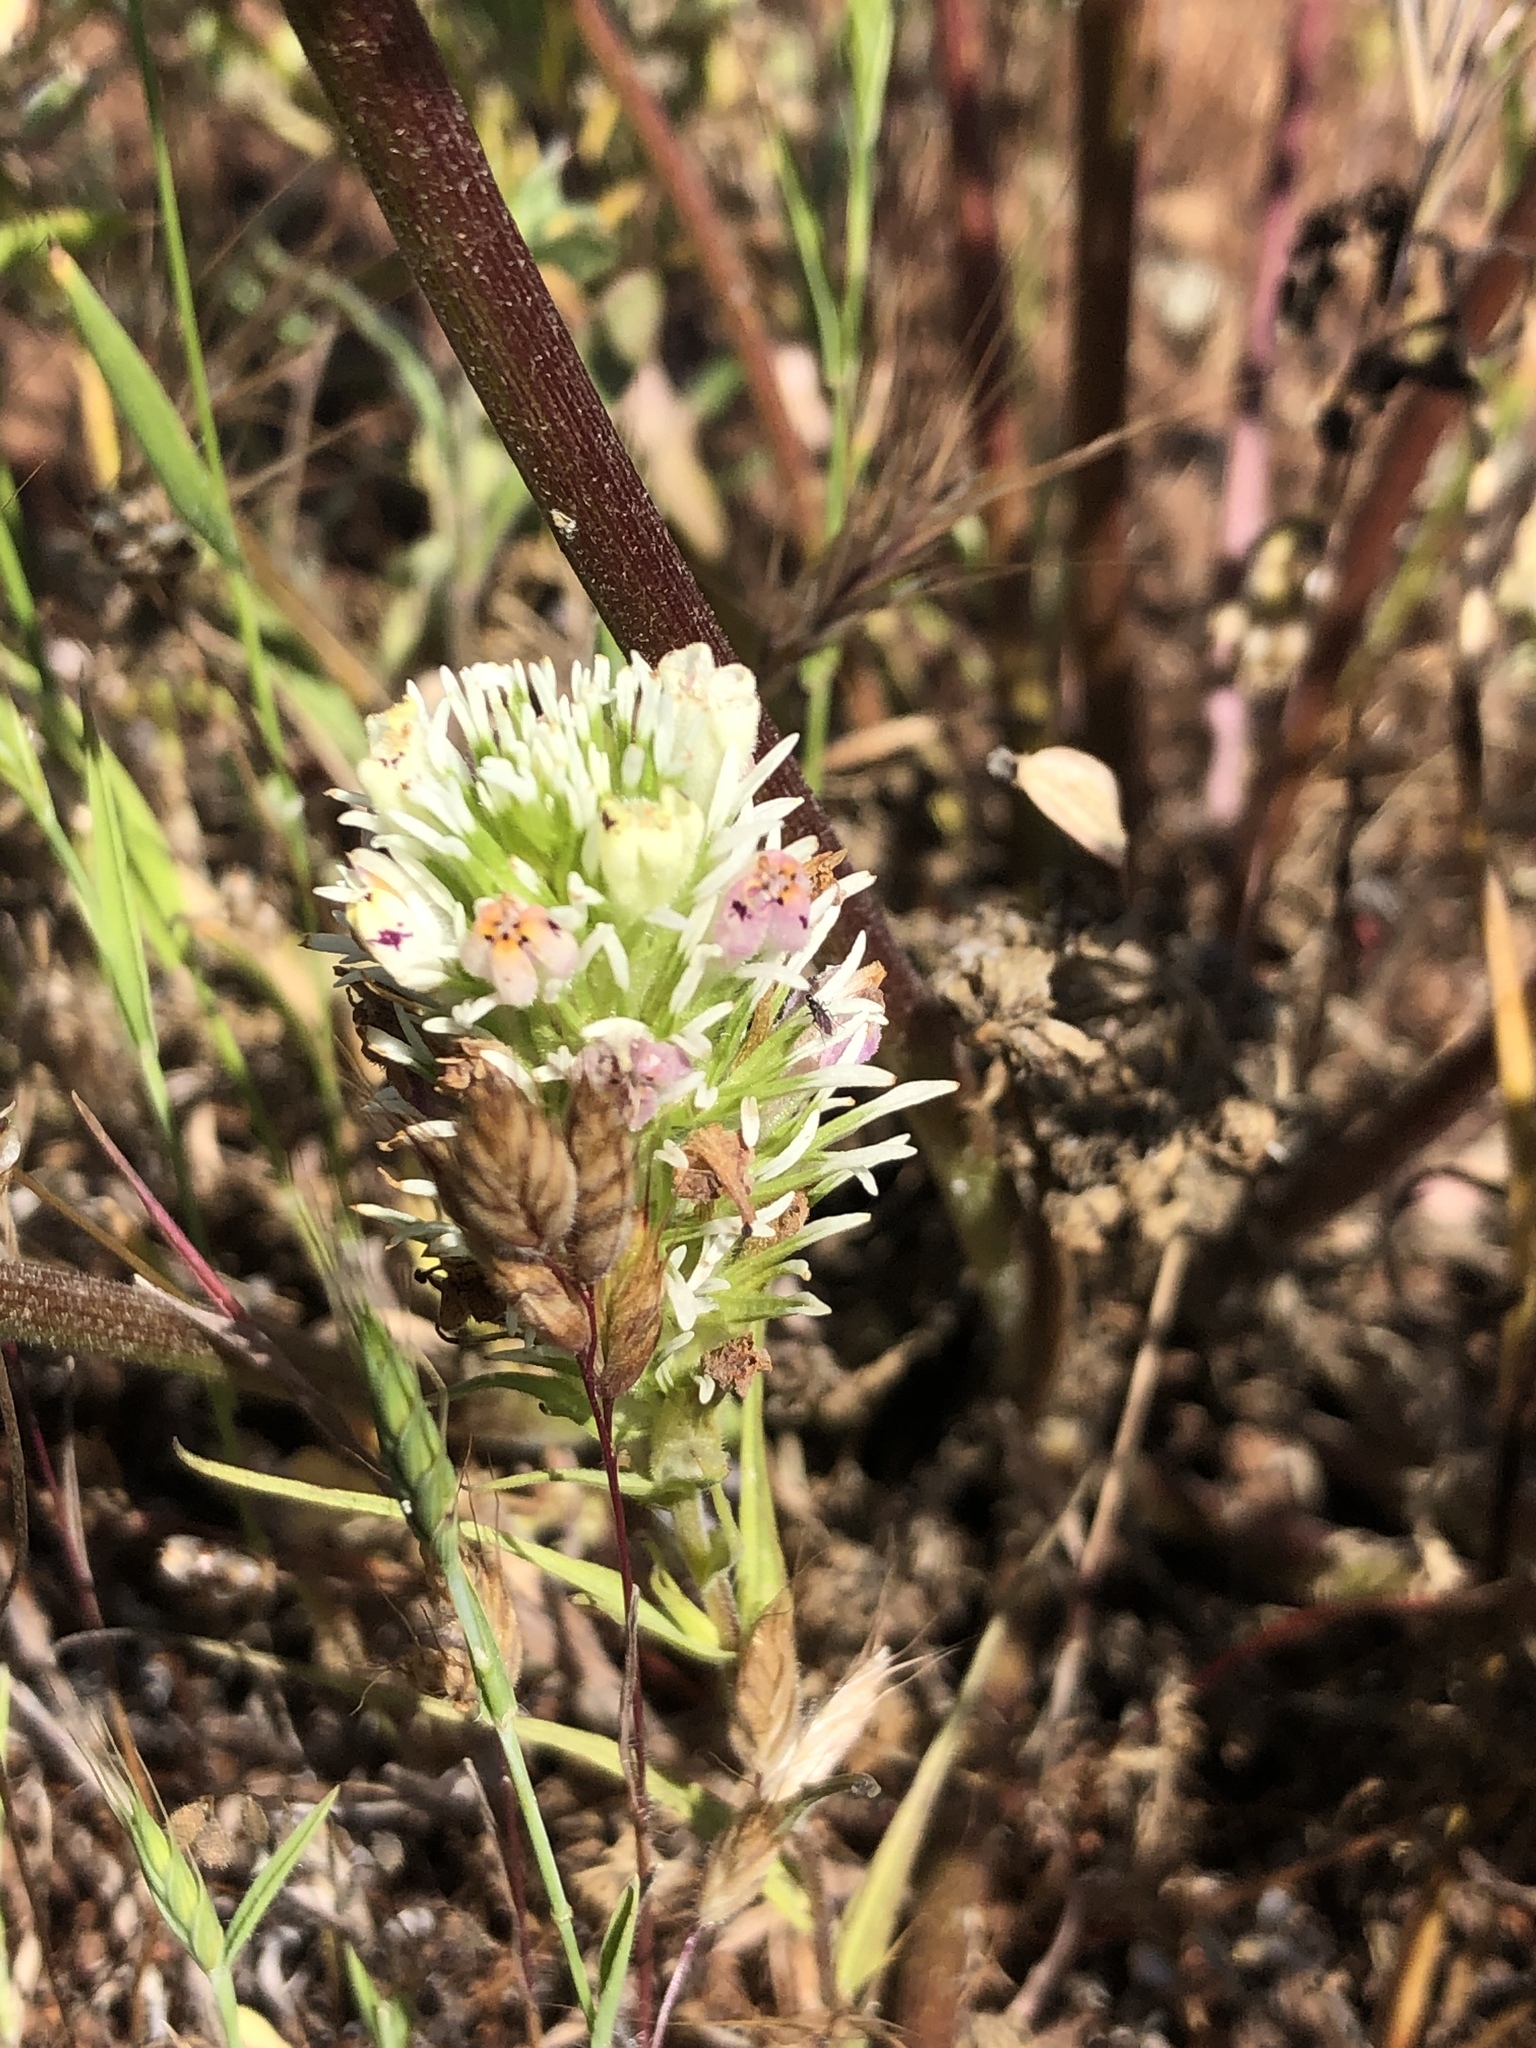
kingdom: Plantae
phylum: Tracheophyta
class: Magnoliopsida
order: Lamiales
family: Orobanchaceae
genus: Castilleja
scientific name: Castilleja densiflora
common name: Dense-flower indian paintbrush
